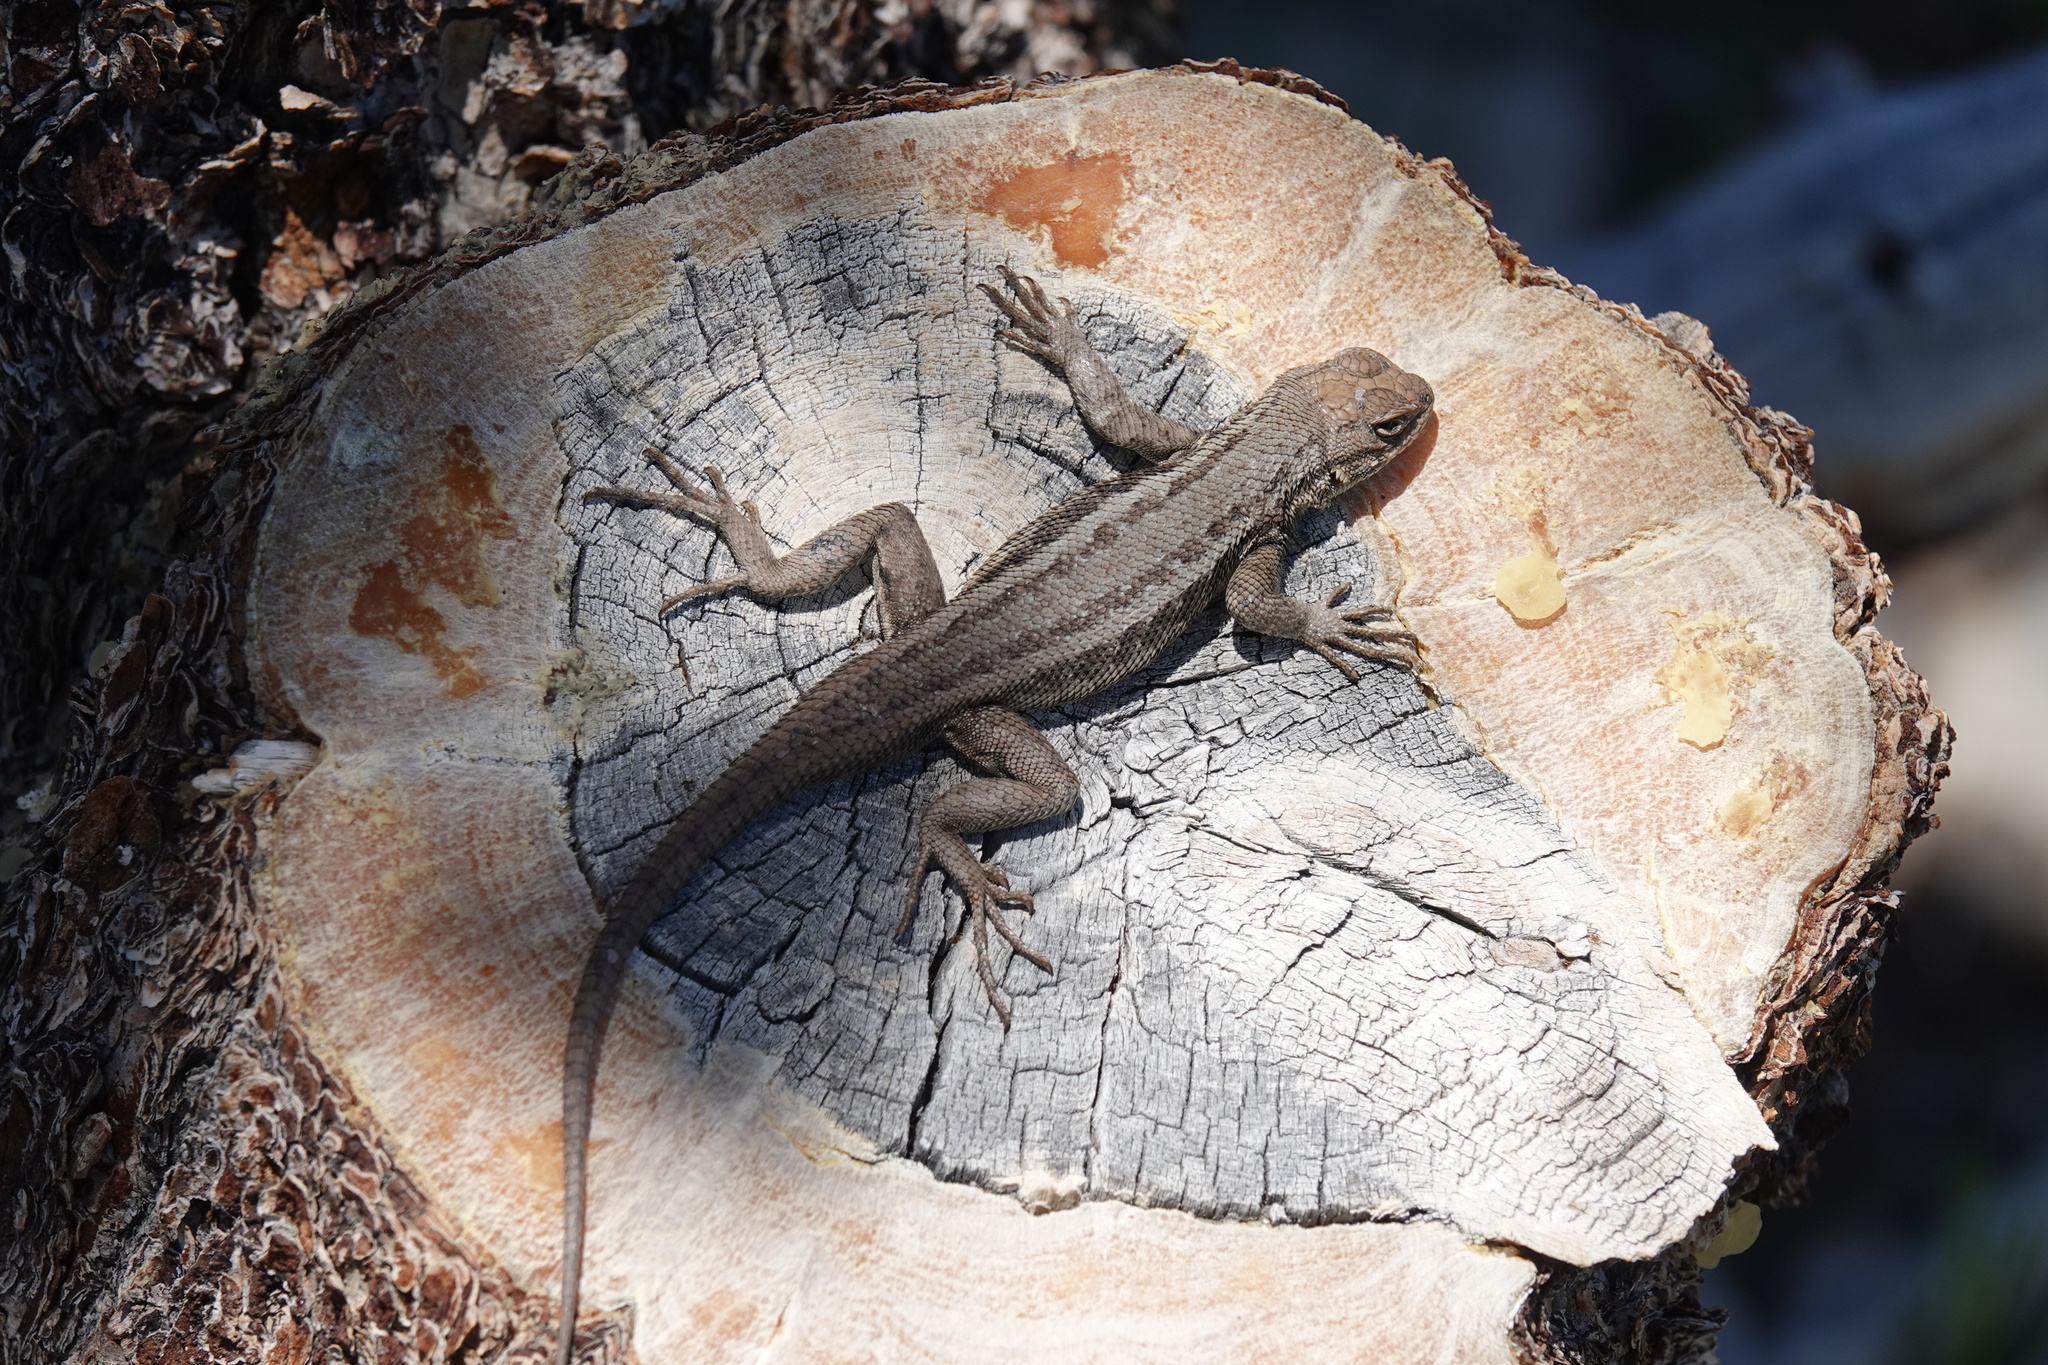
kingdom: Animalia
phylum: Chordata
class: Squamata
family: Phrynosomatidae
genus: Sceloporus
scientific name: Sceloporus graciosus
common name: Sagebrush lizard
